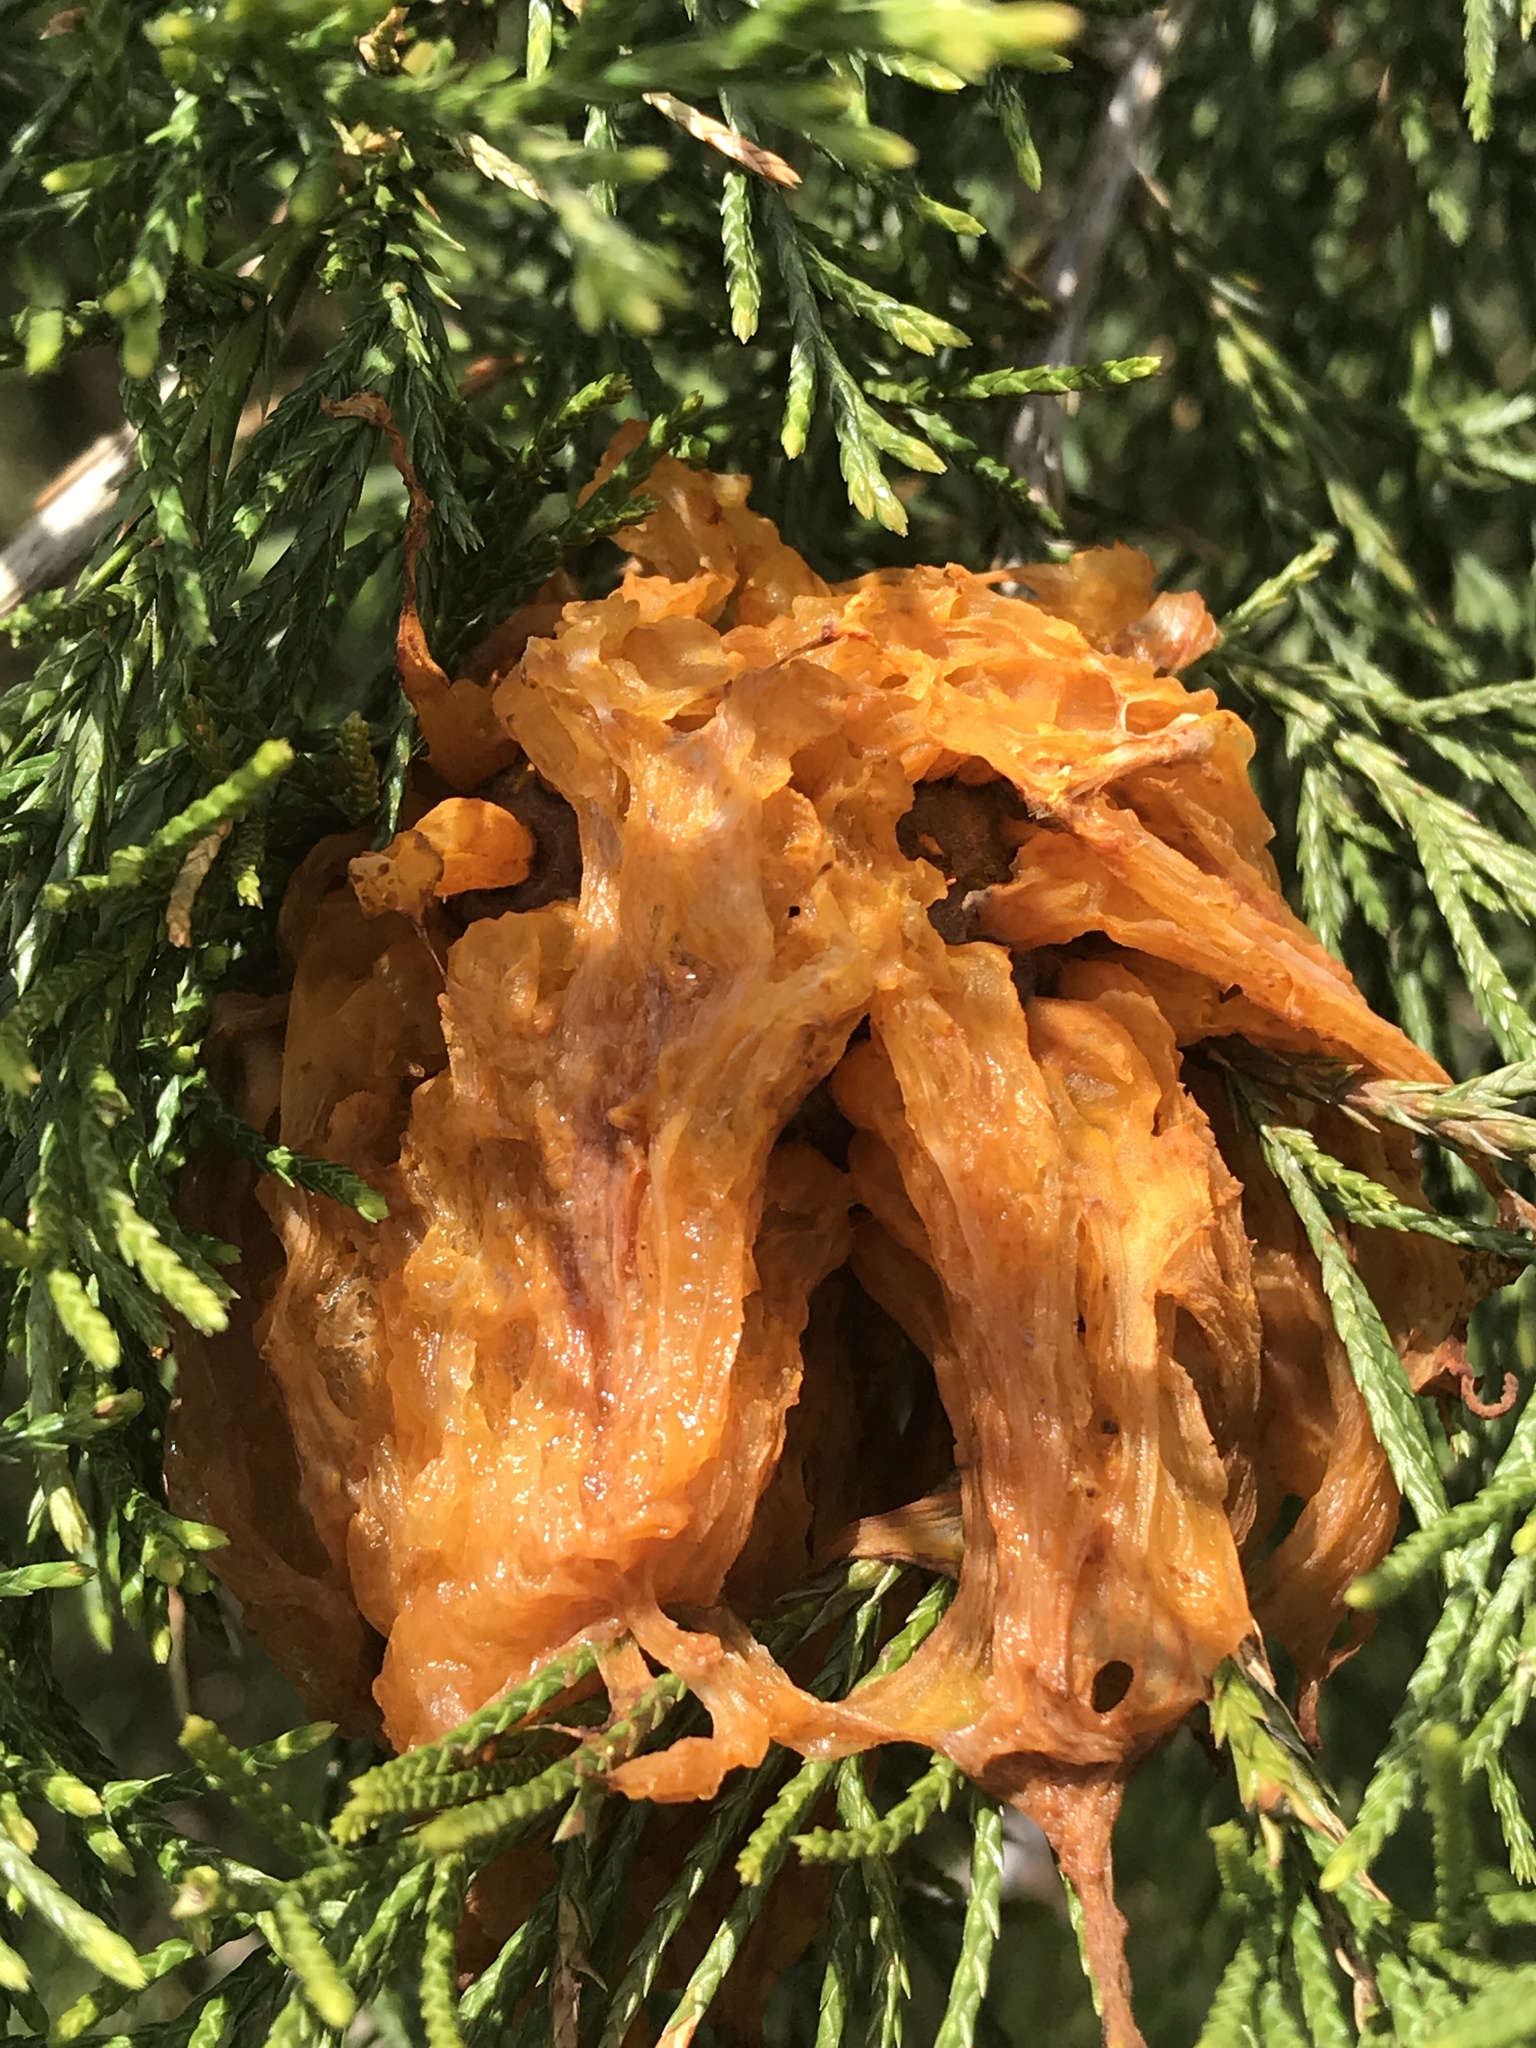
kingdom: Fungi
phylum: Basidiomycota
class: Pucciniomycetes
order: Pucciniales
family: Gymnosporangiaceae
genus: Gymnosporangium
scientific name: Gymnosporangium juniperi-virginianae
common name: Juniper-apple rust
